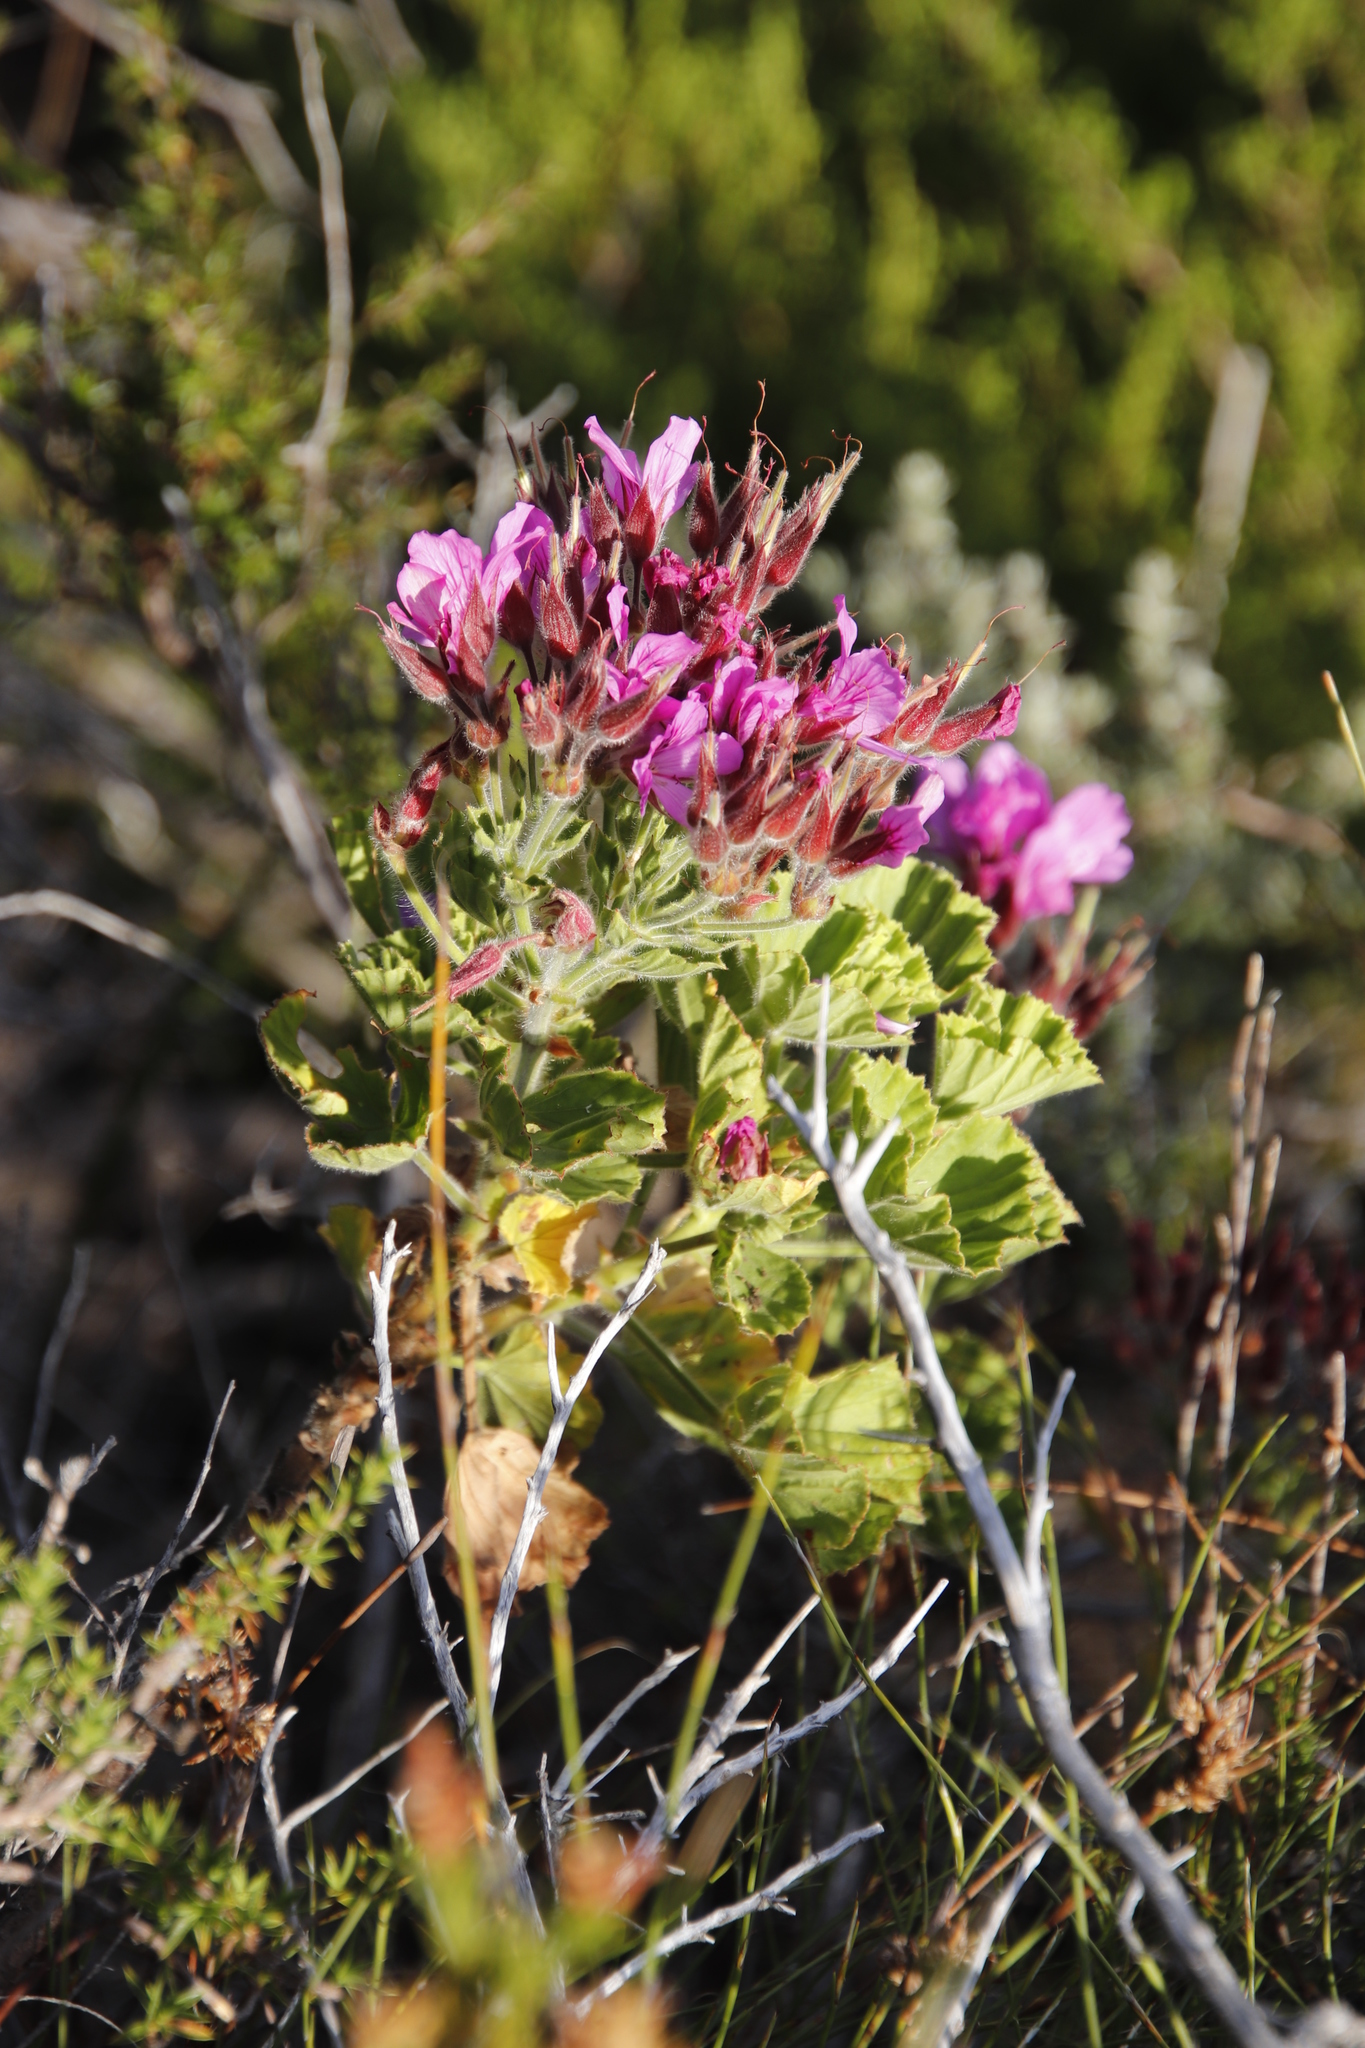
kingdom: Plantae
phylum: Tracheophyta
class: Magnoliopsida
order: Geraniales
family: Geraniaceae
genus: Pelargonium
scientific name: Pelargonium cucullatum
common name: Tree pelargonium
